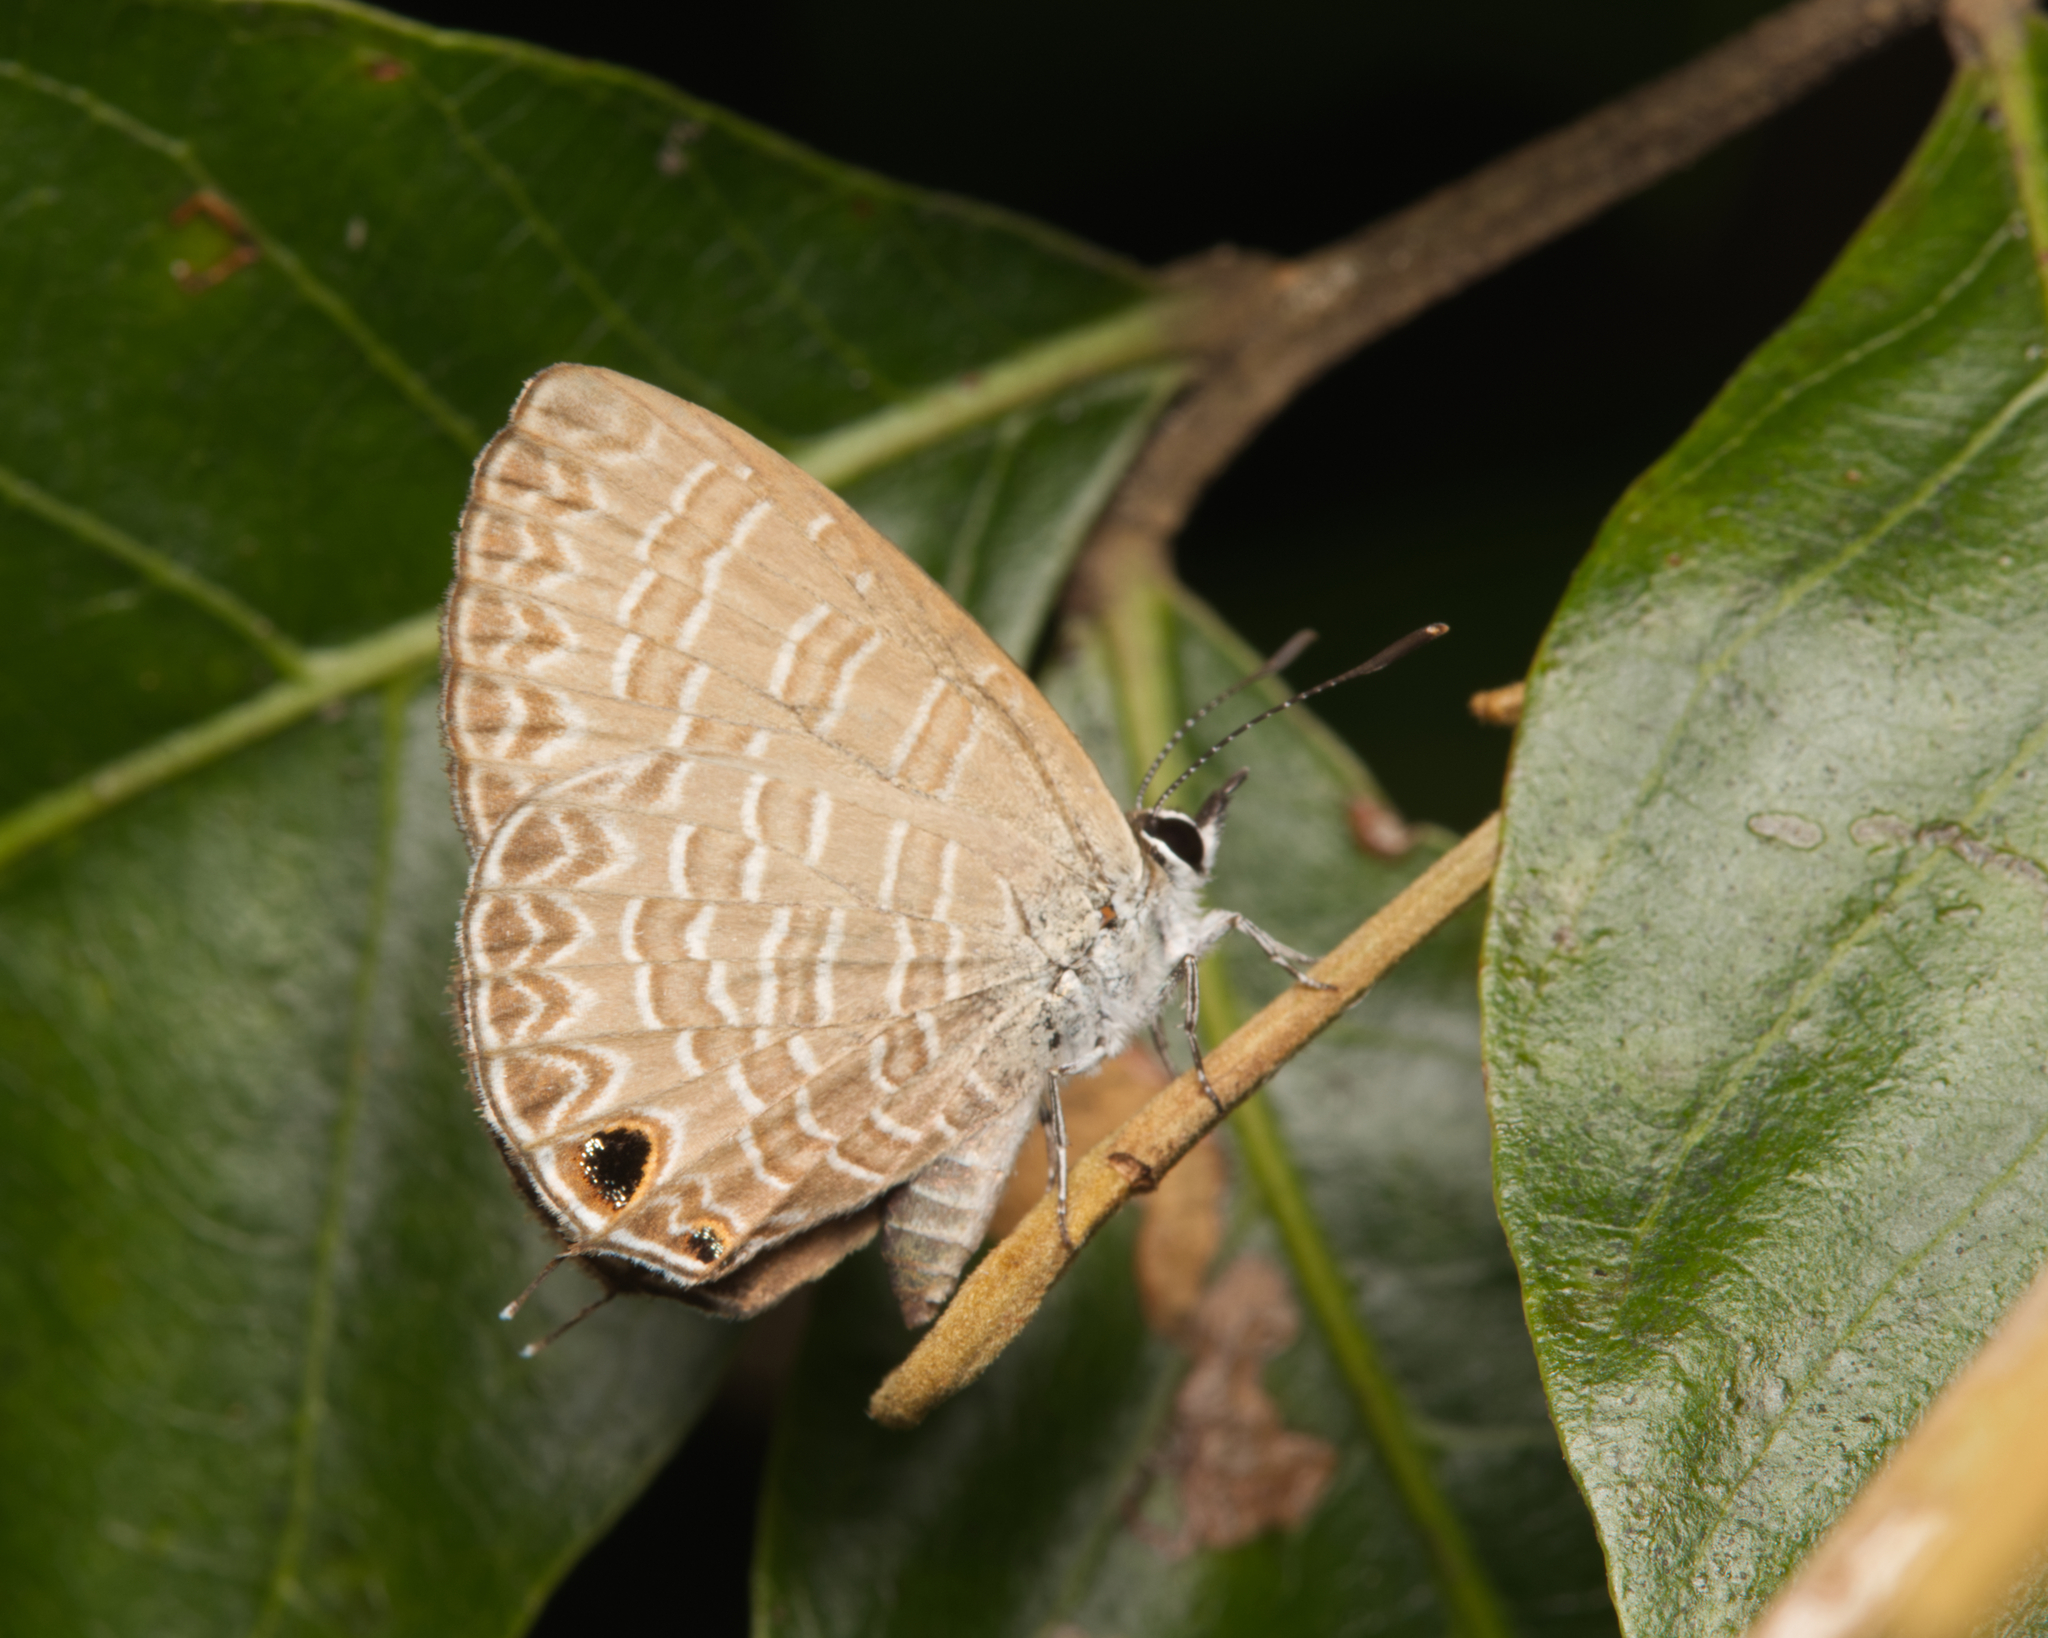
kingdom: Animalia
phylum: Arthropoda
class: Insecta
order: Lepidoptera
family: Lycaenidae
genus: Nacaduba
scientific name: Nacaduba berenice
